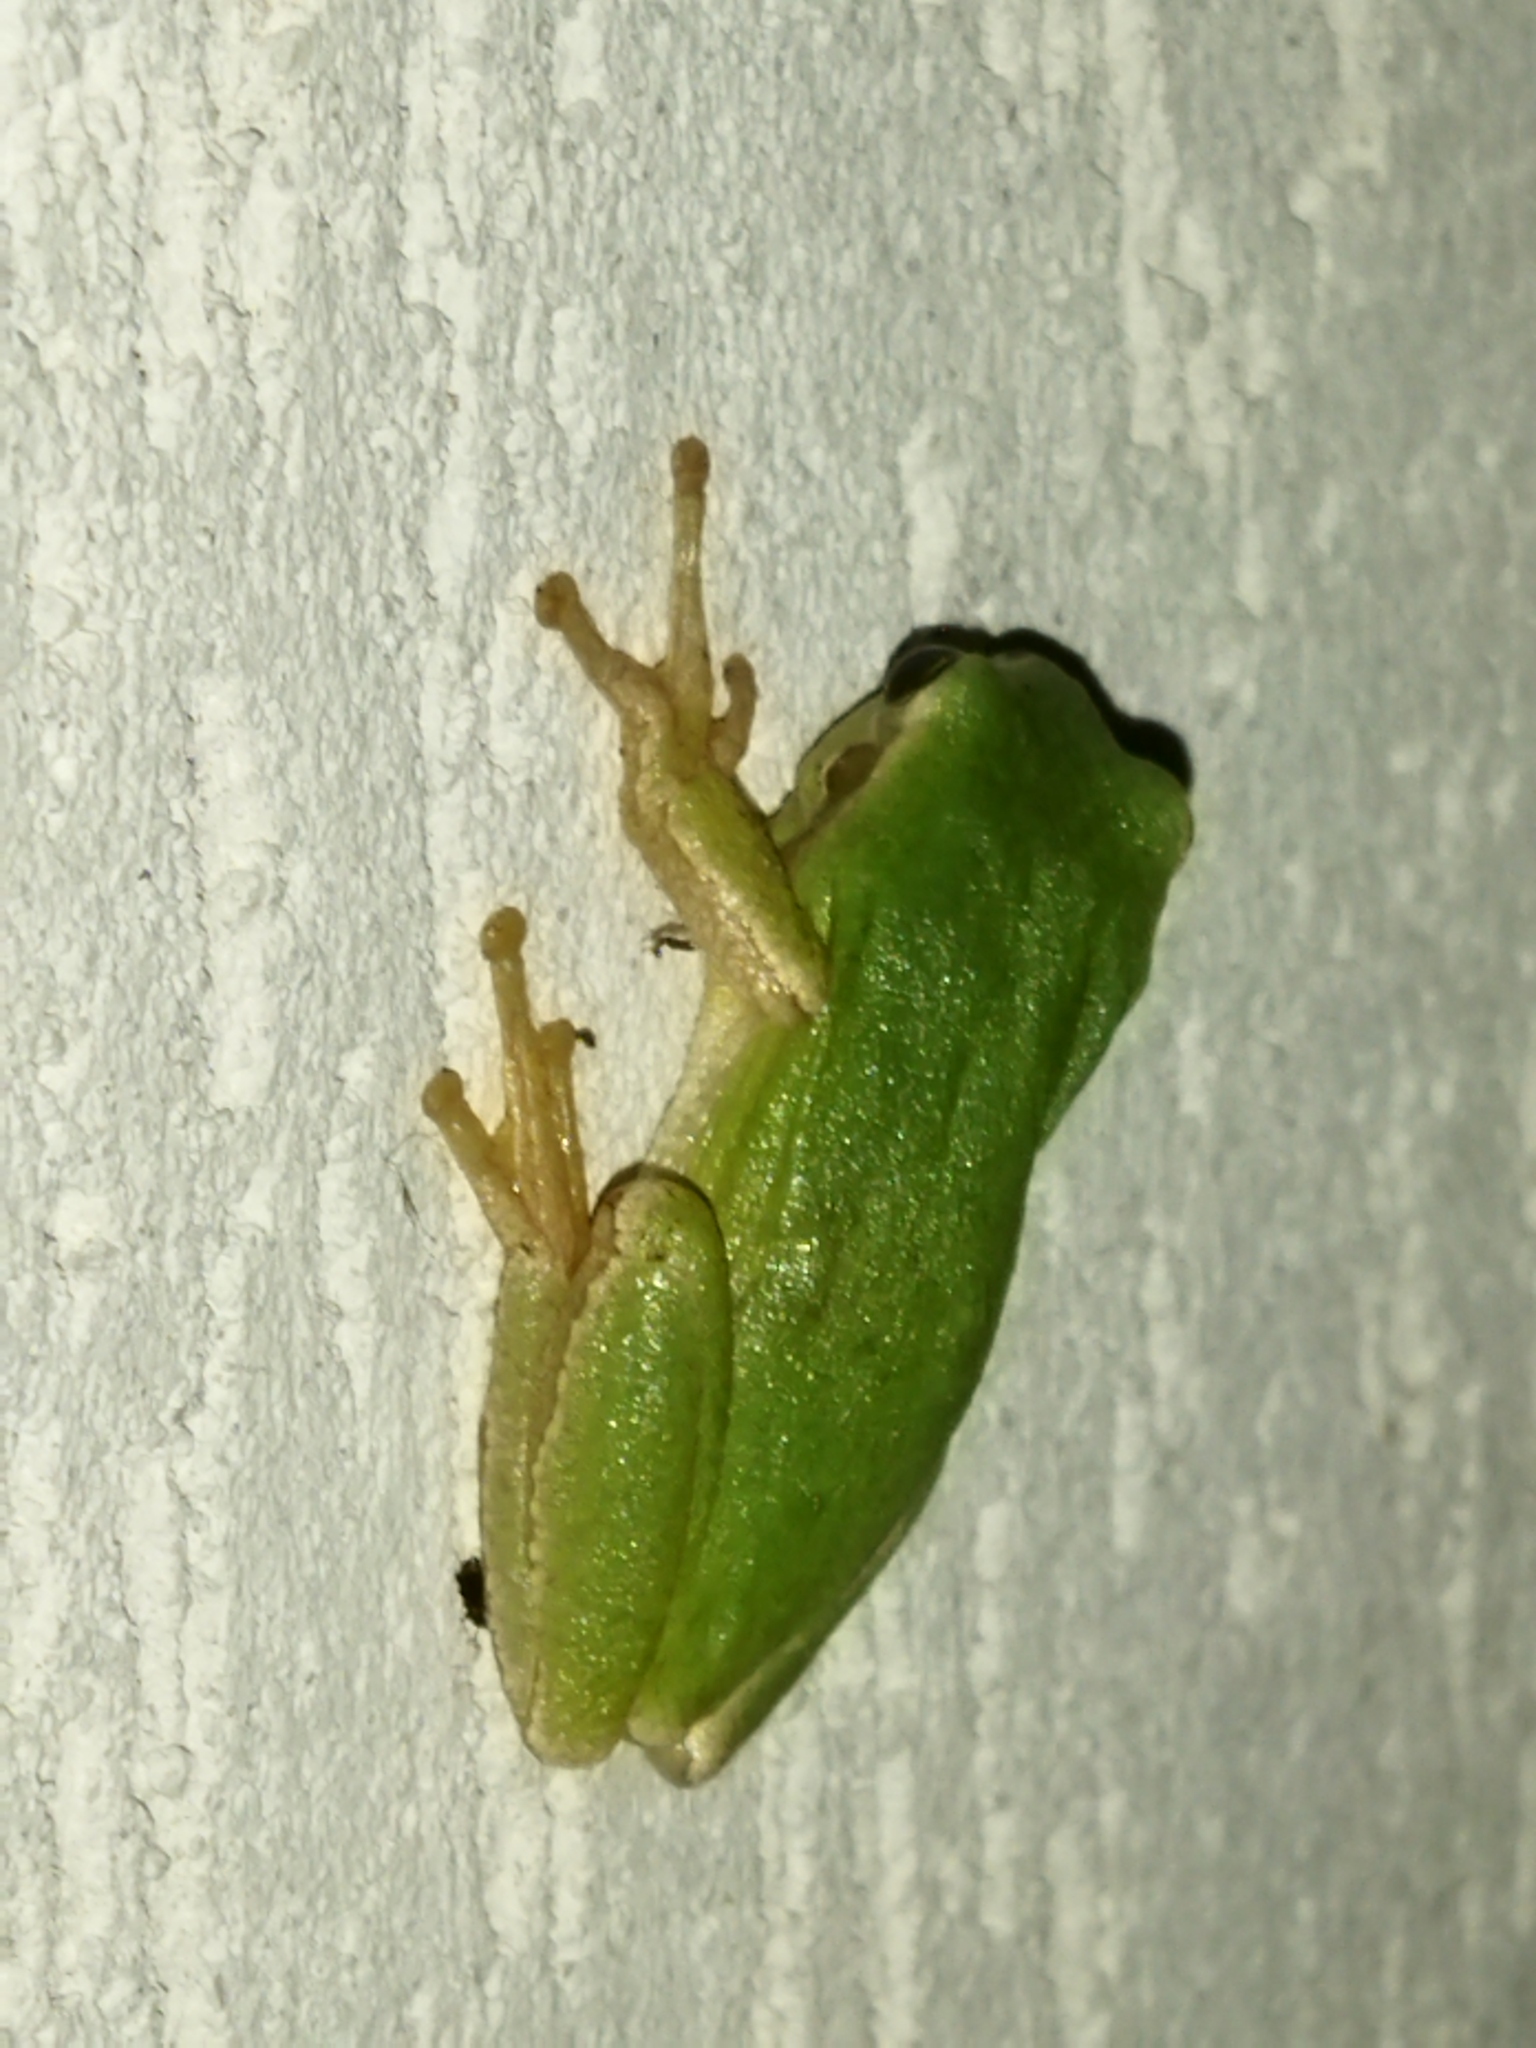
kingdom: Animalia
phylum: Chordata
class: Amphibia
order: Anura
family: Hylidae
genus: Hyla
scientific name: Hyla orientalis
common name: Caucasian treefrog
